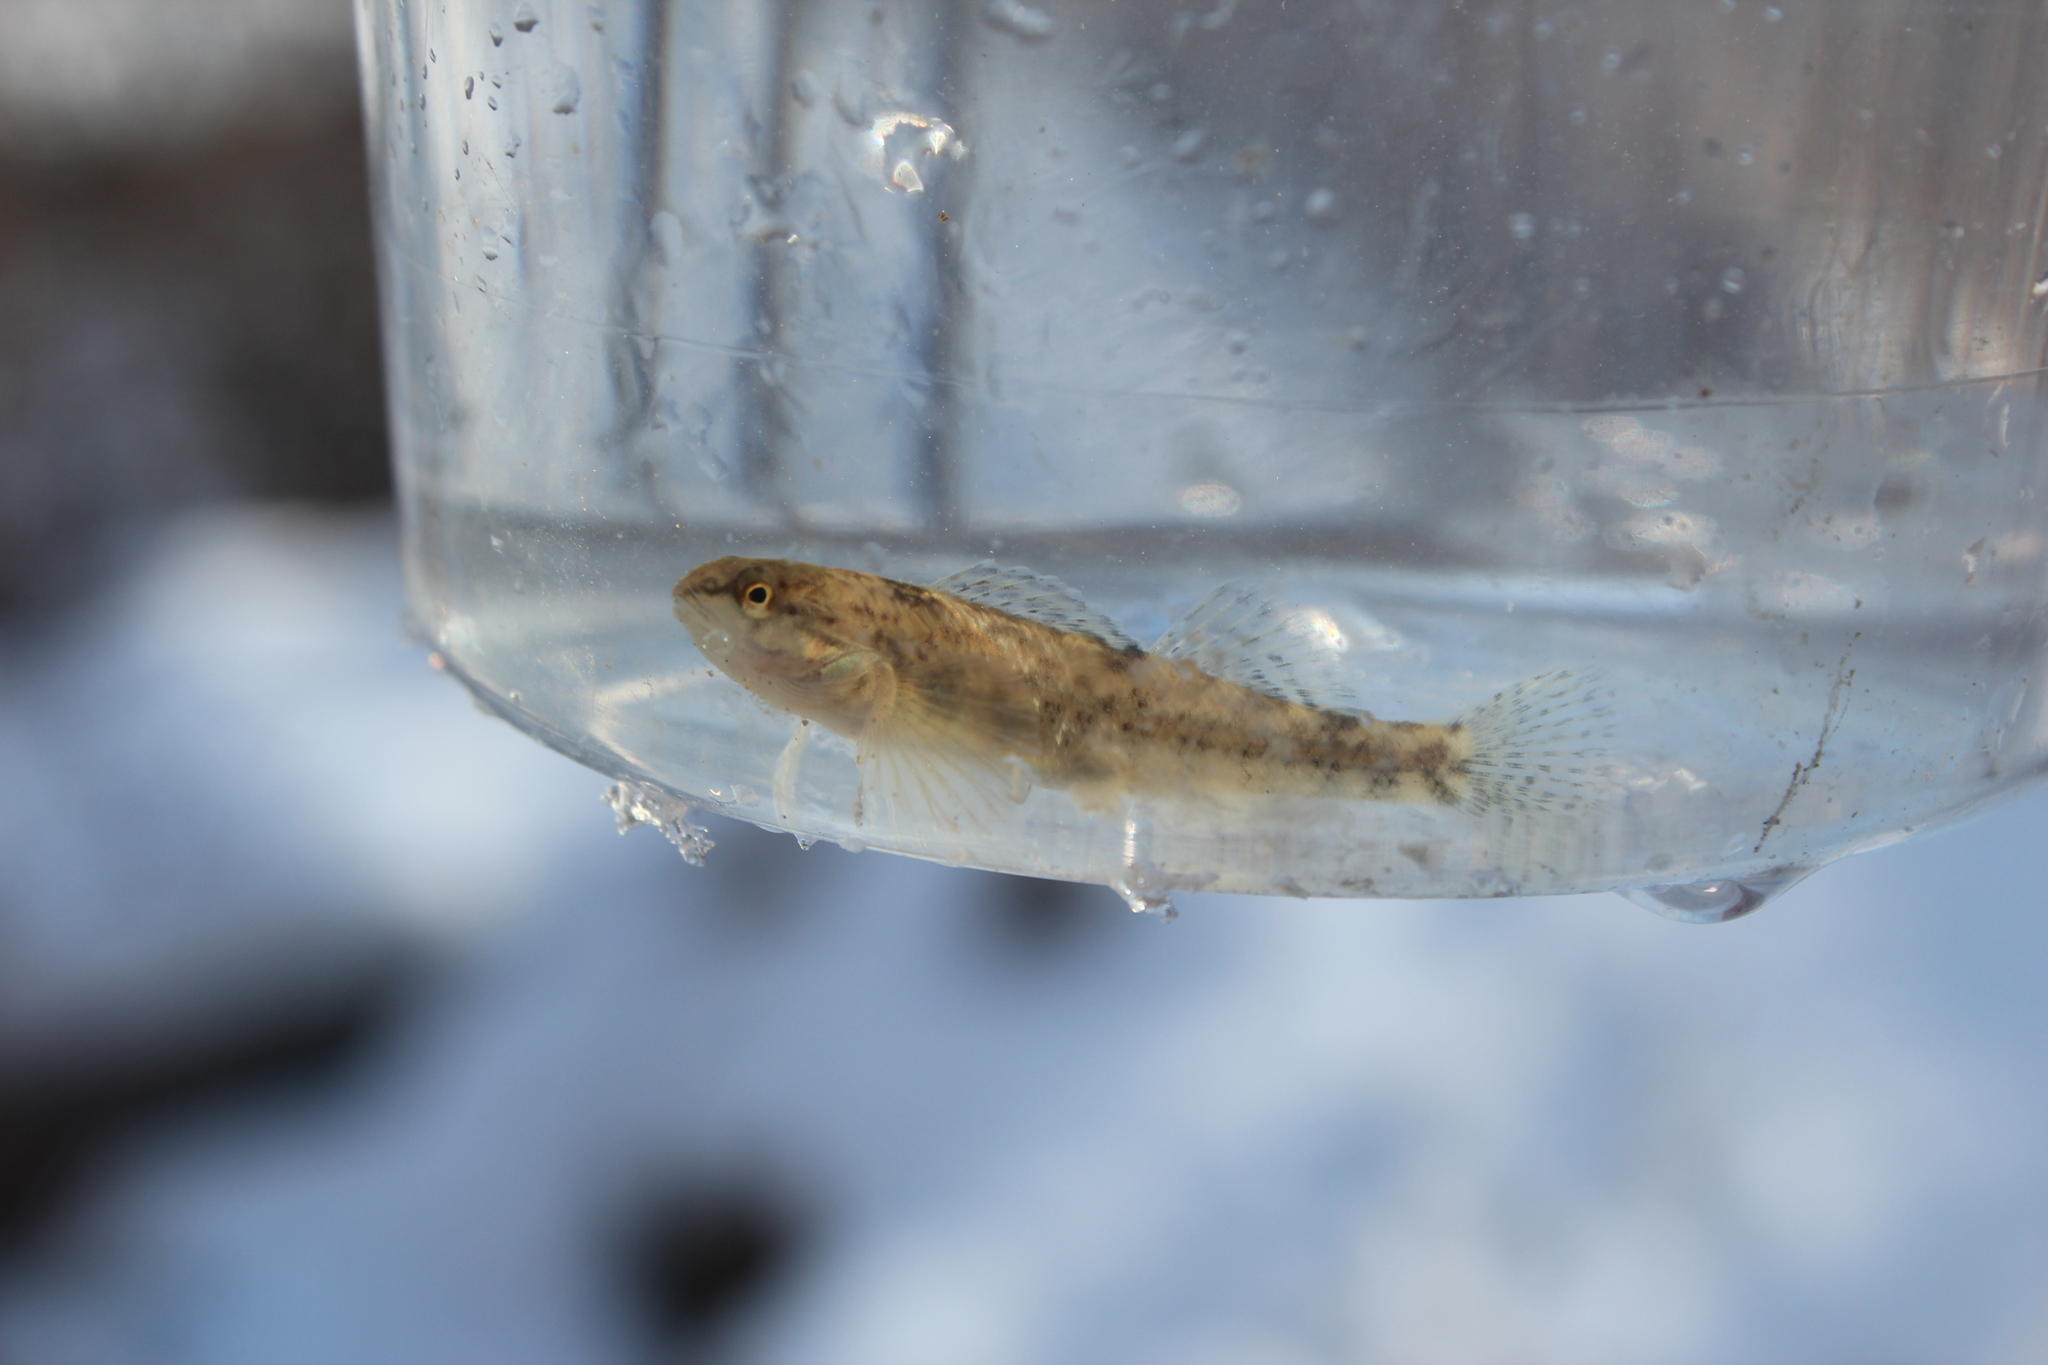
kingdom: Animalia
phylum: Chordata
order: Perciformes
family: Percidae
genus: Etheostoma
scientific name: Etheostoma caeruleum
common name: Rainbow darter
